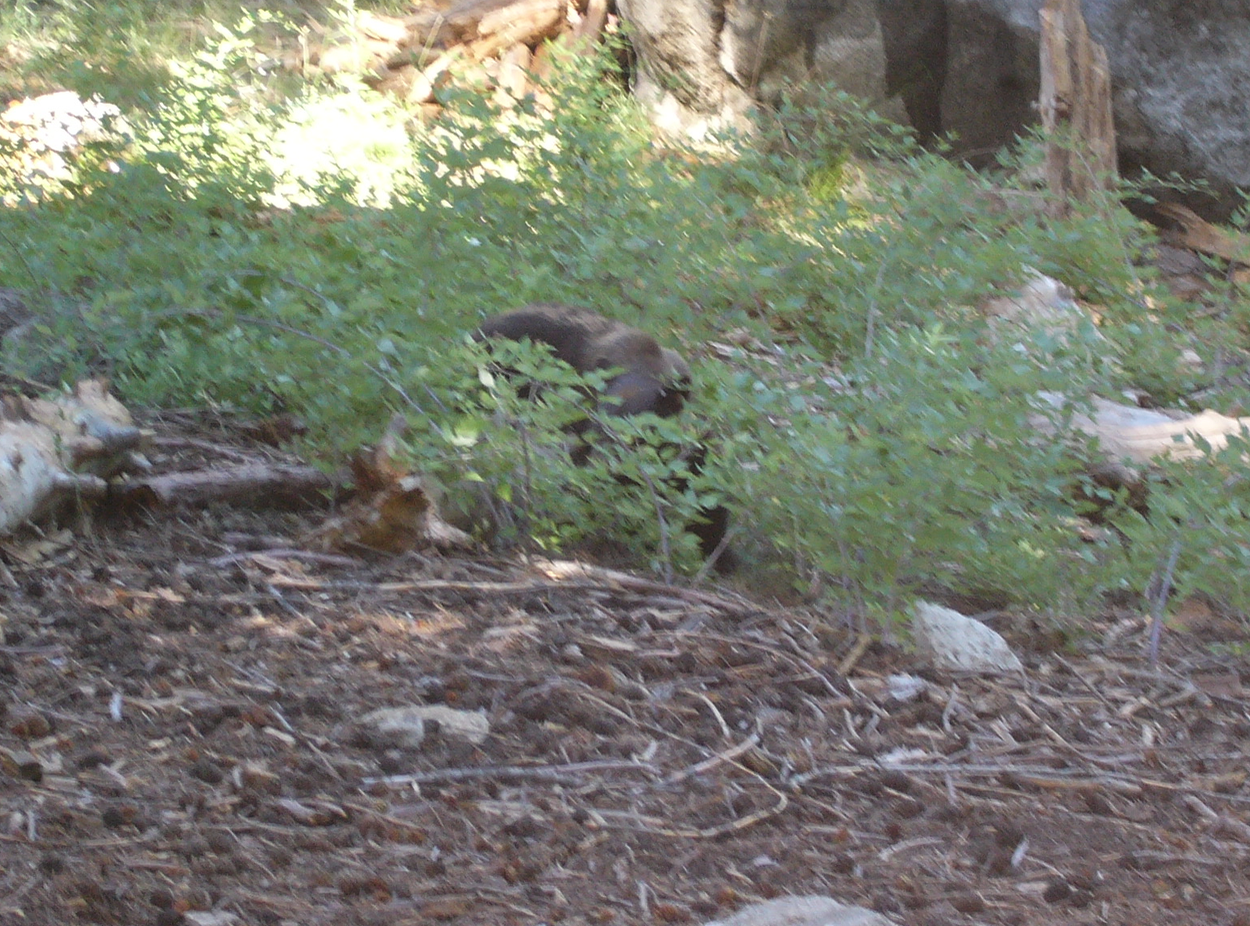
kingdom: Animalia
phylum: Chordata
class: Mammalia
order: Carnivora
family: Ursidae
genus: Ursus
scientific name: Ursus americanus
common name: American black bear
